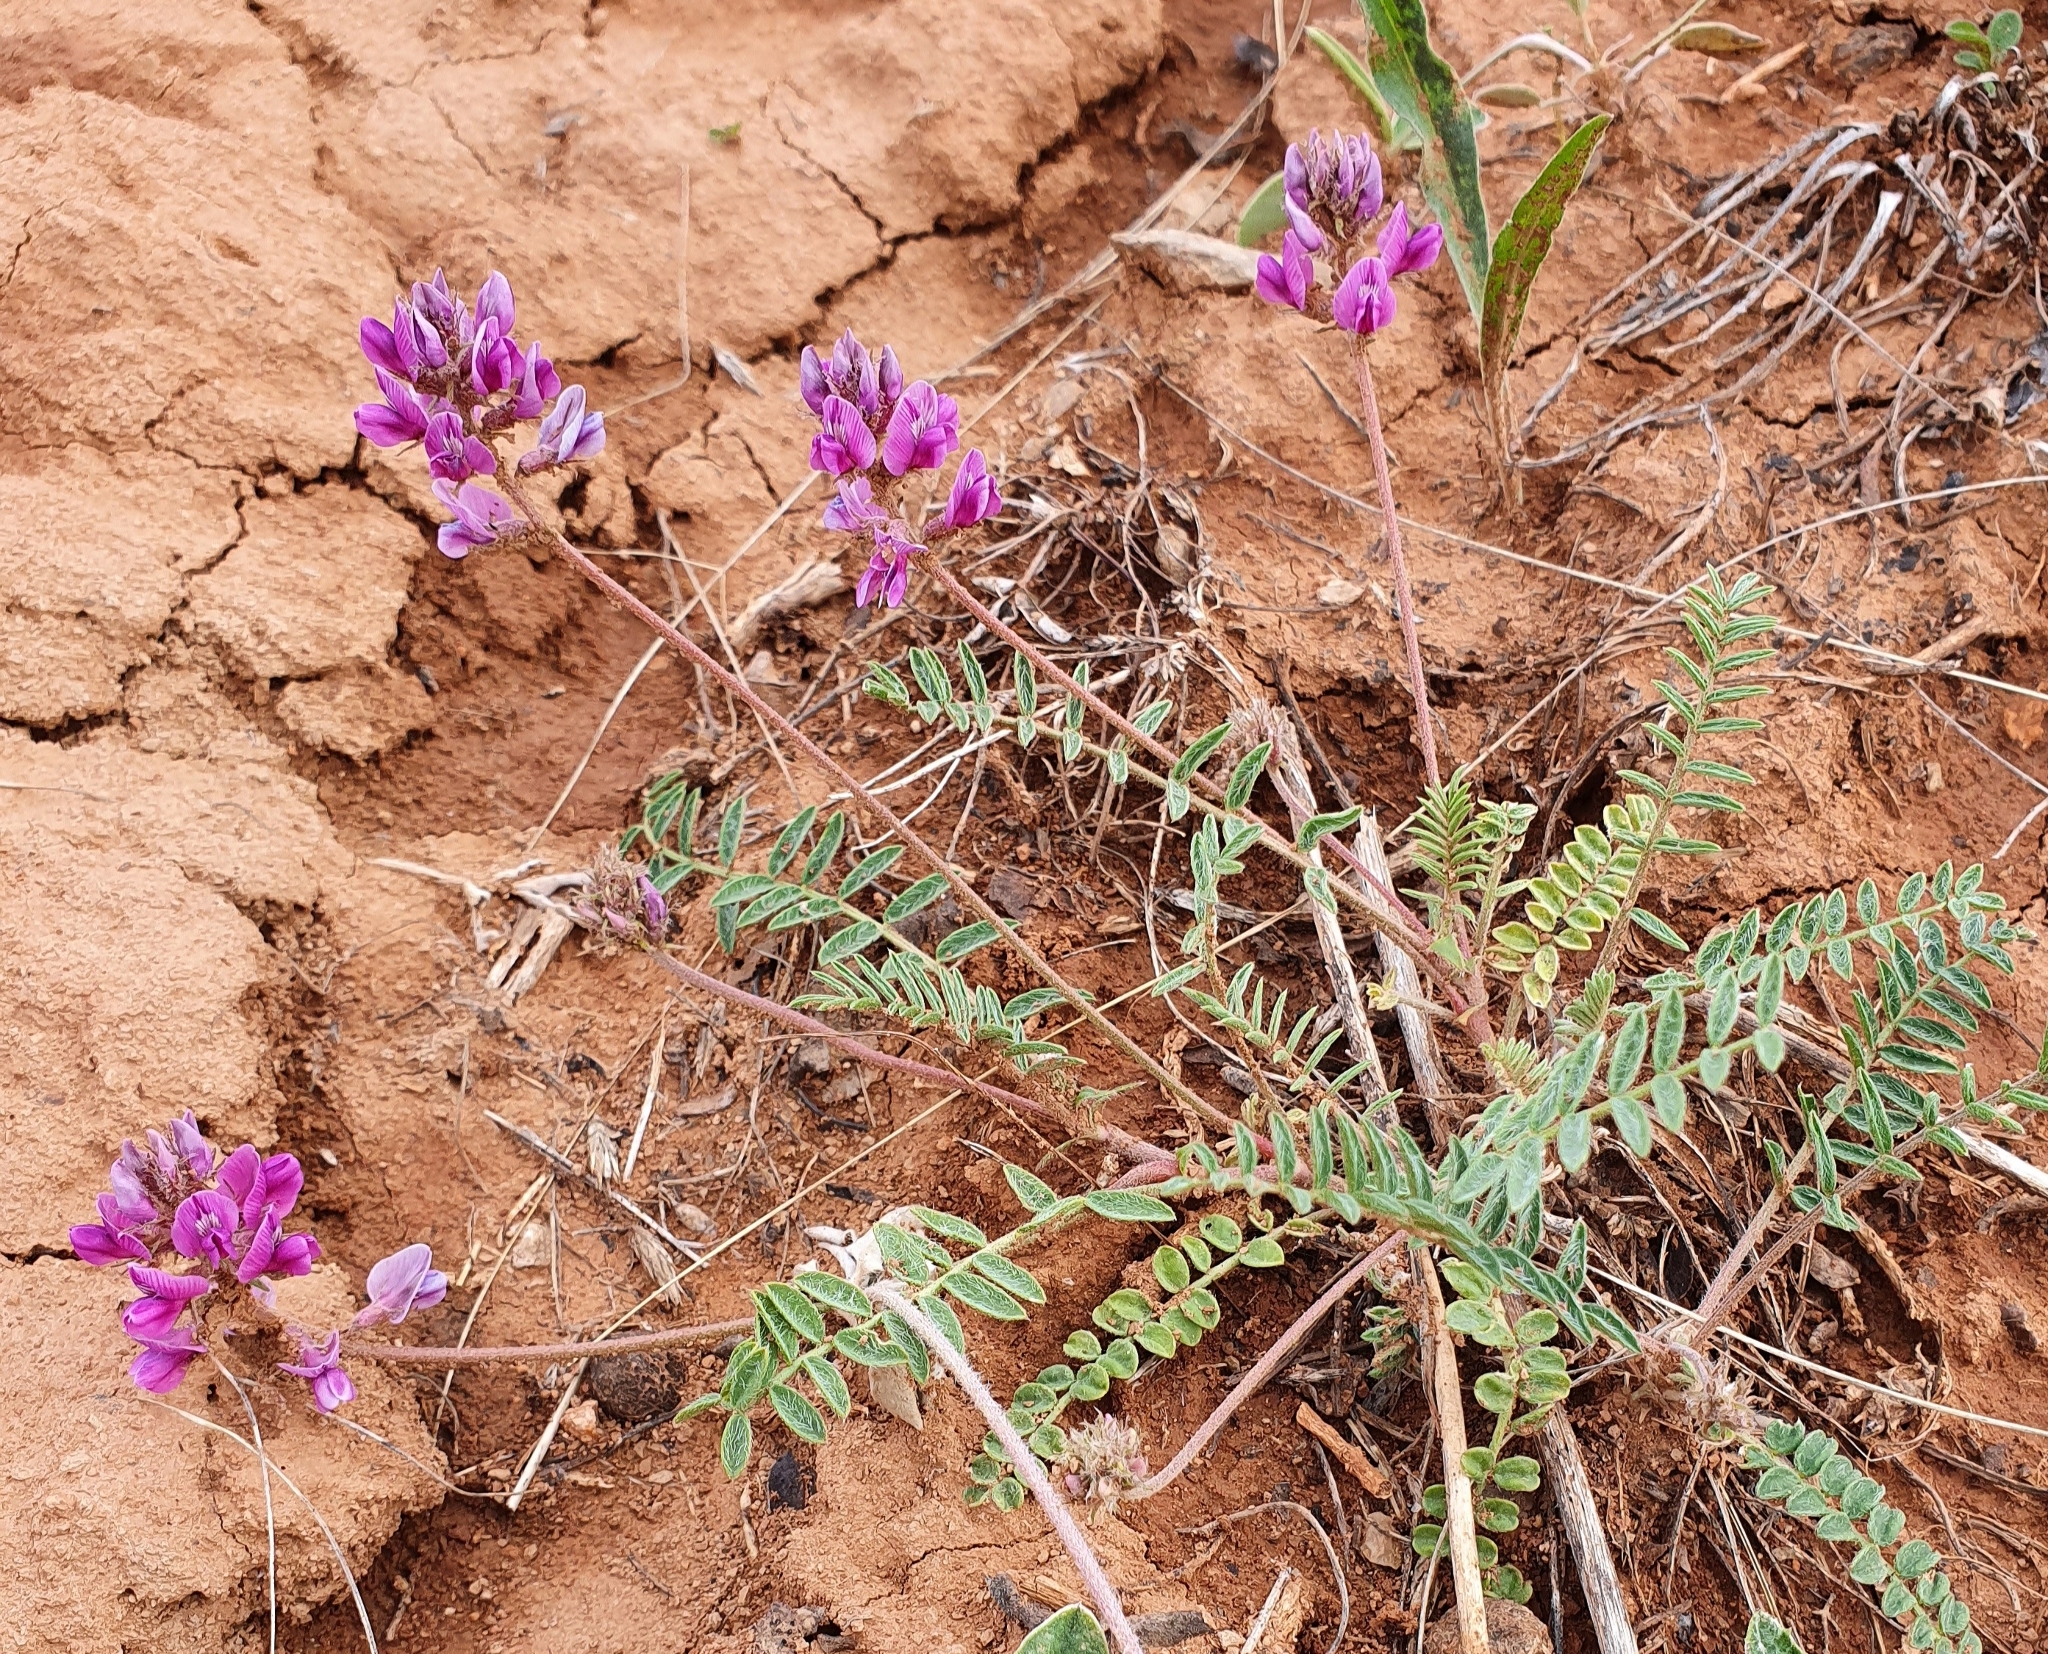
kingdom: Plantae
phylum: Tracheophyta
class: Magnoliopsida
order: Fabales
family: Fabaceae
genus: Oxytropis
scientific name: Oxytropis floribunda
